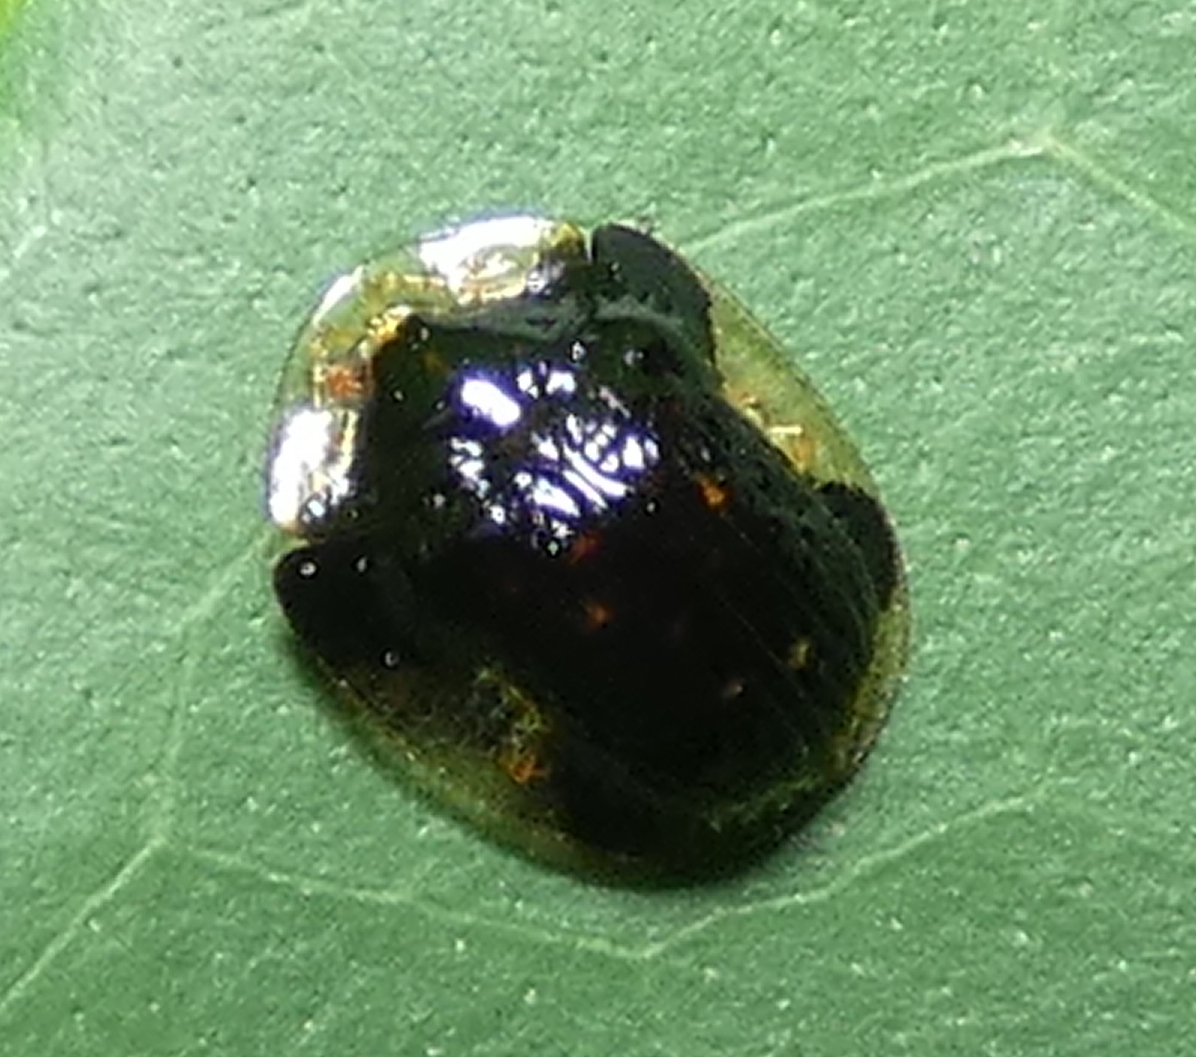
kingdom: Animalia
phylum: Arthropoda
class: Insecta
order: Coleoptera
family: Chrysomelidae
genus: Cteisella
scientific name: Cteisella ramosa
